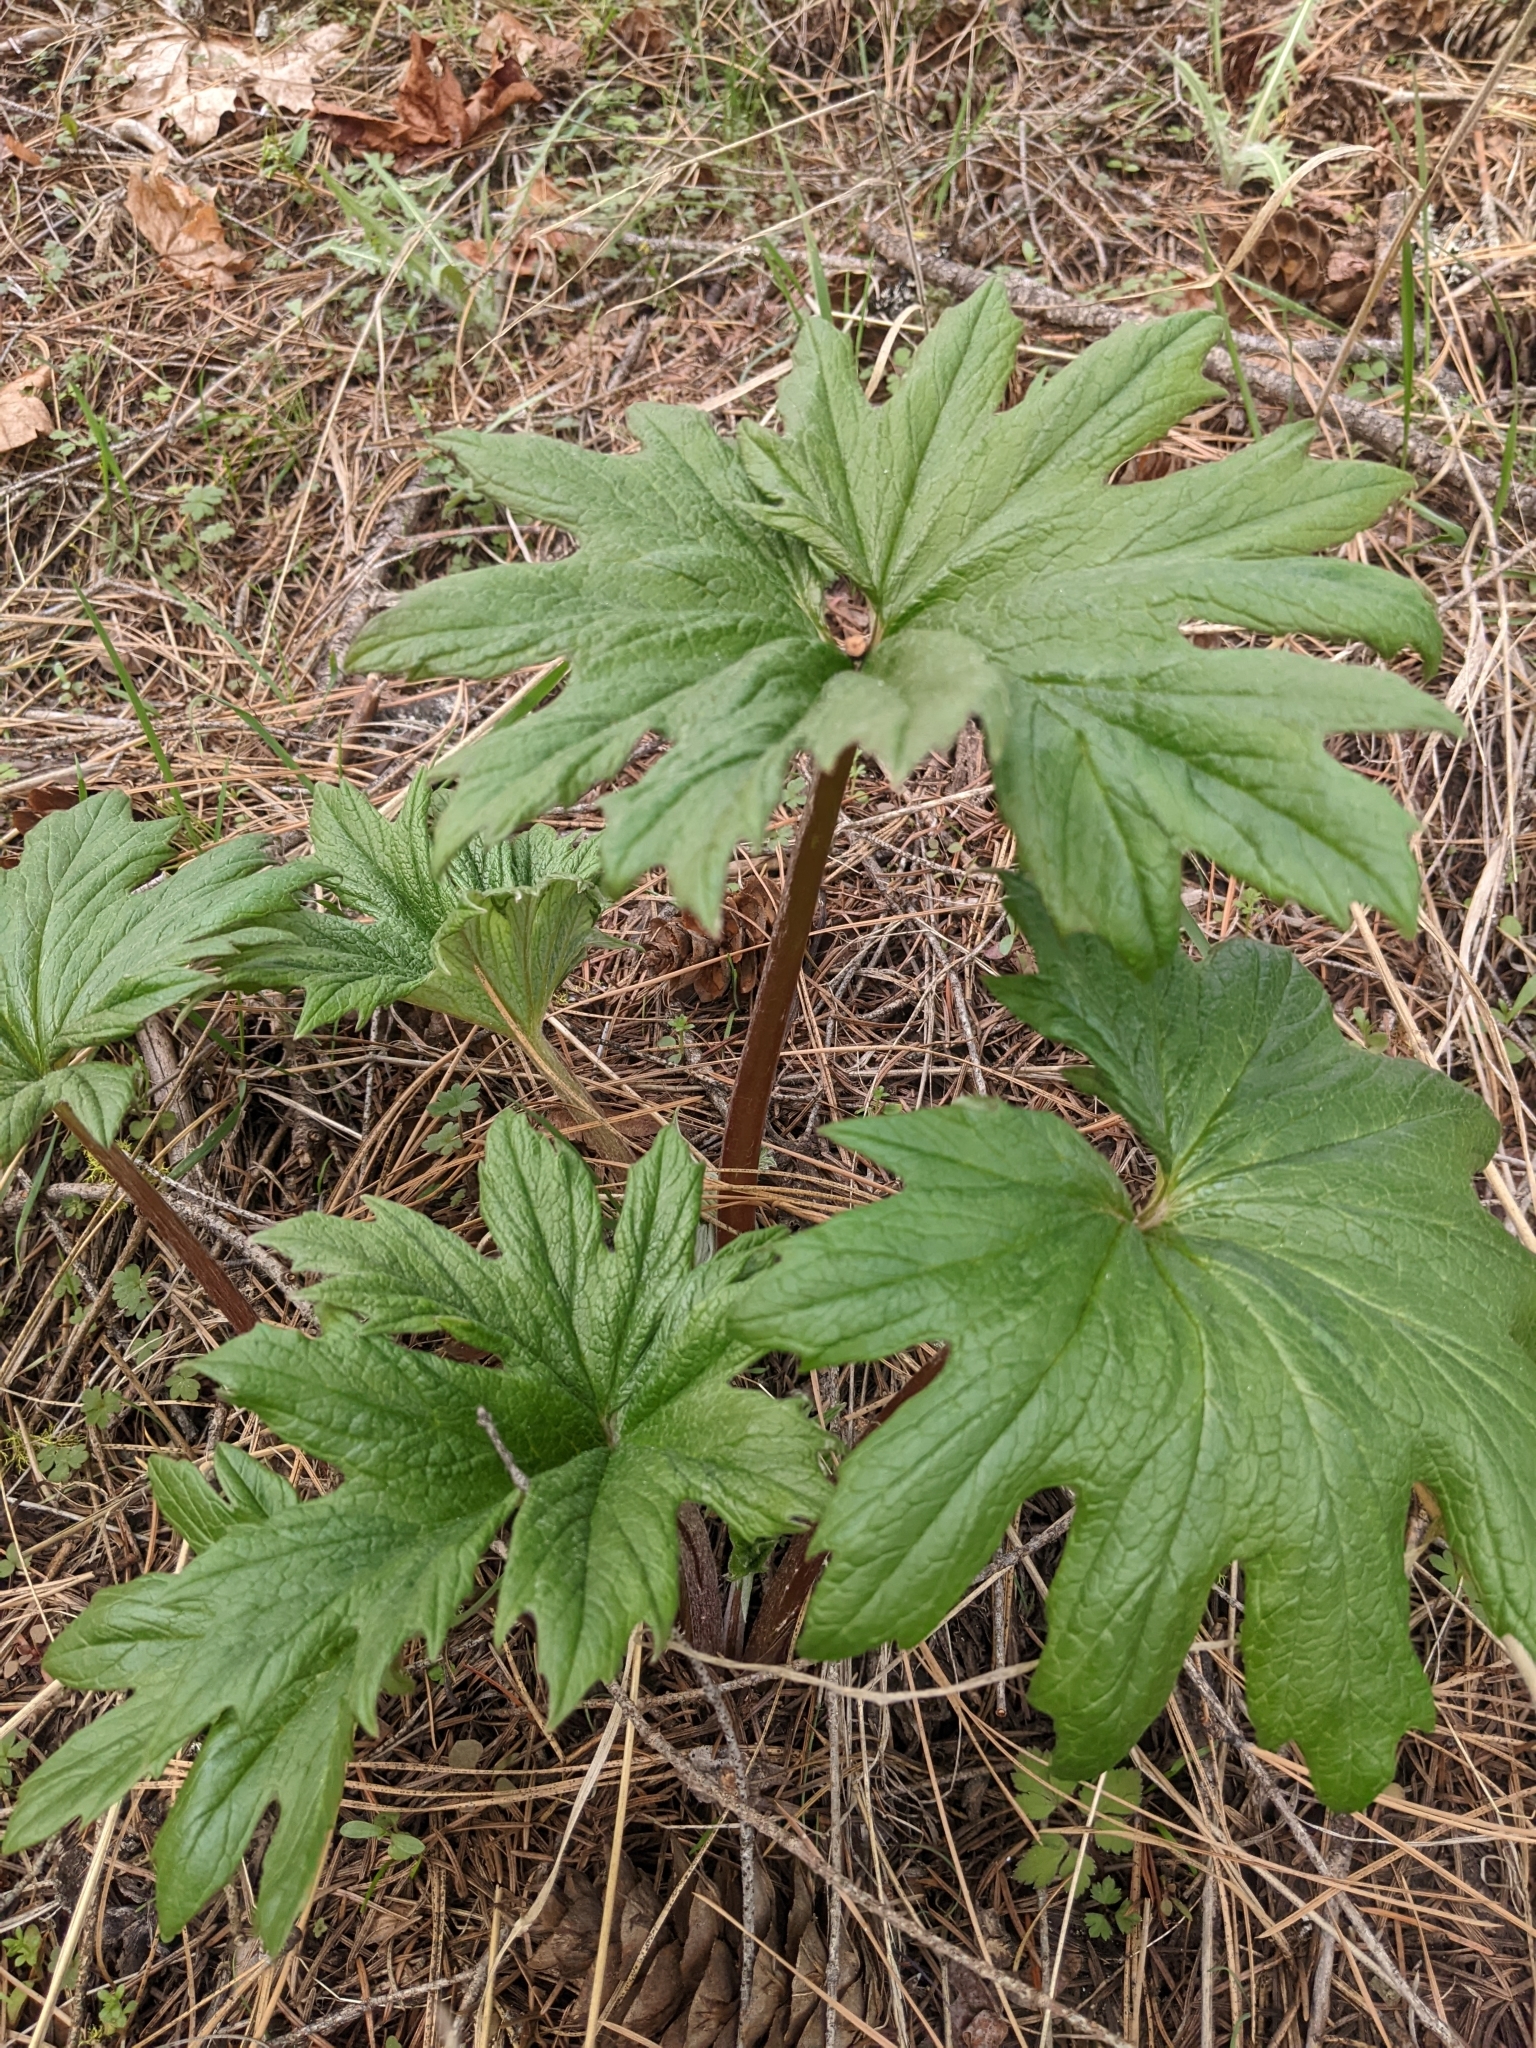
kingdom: Plantae
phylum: Tracheophyta
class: Magnoliopsida
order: Asterales
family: Asteraceae
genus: Cacaliopsis
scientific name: Cacaliopsis nardosmia
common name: Silvercrown
